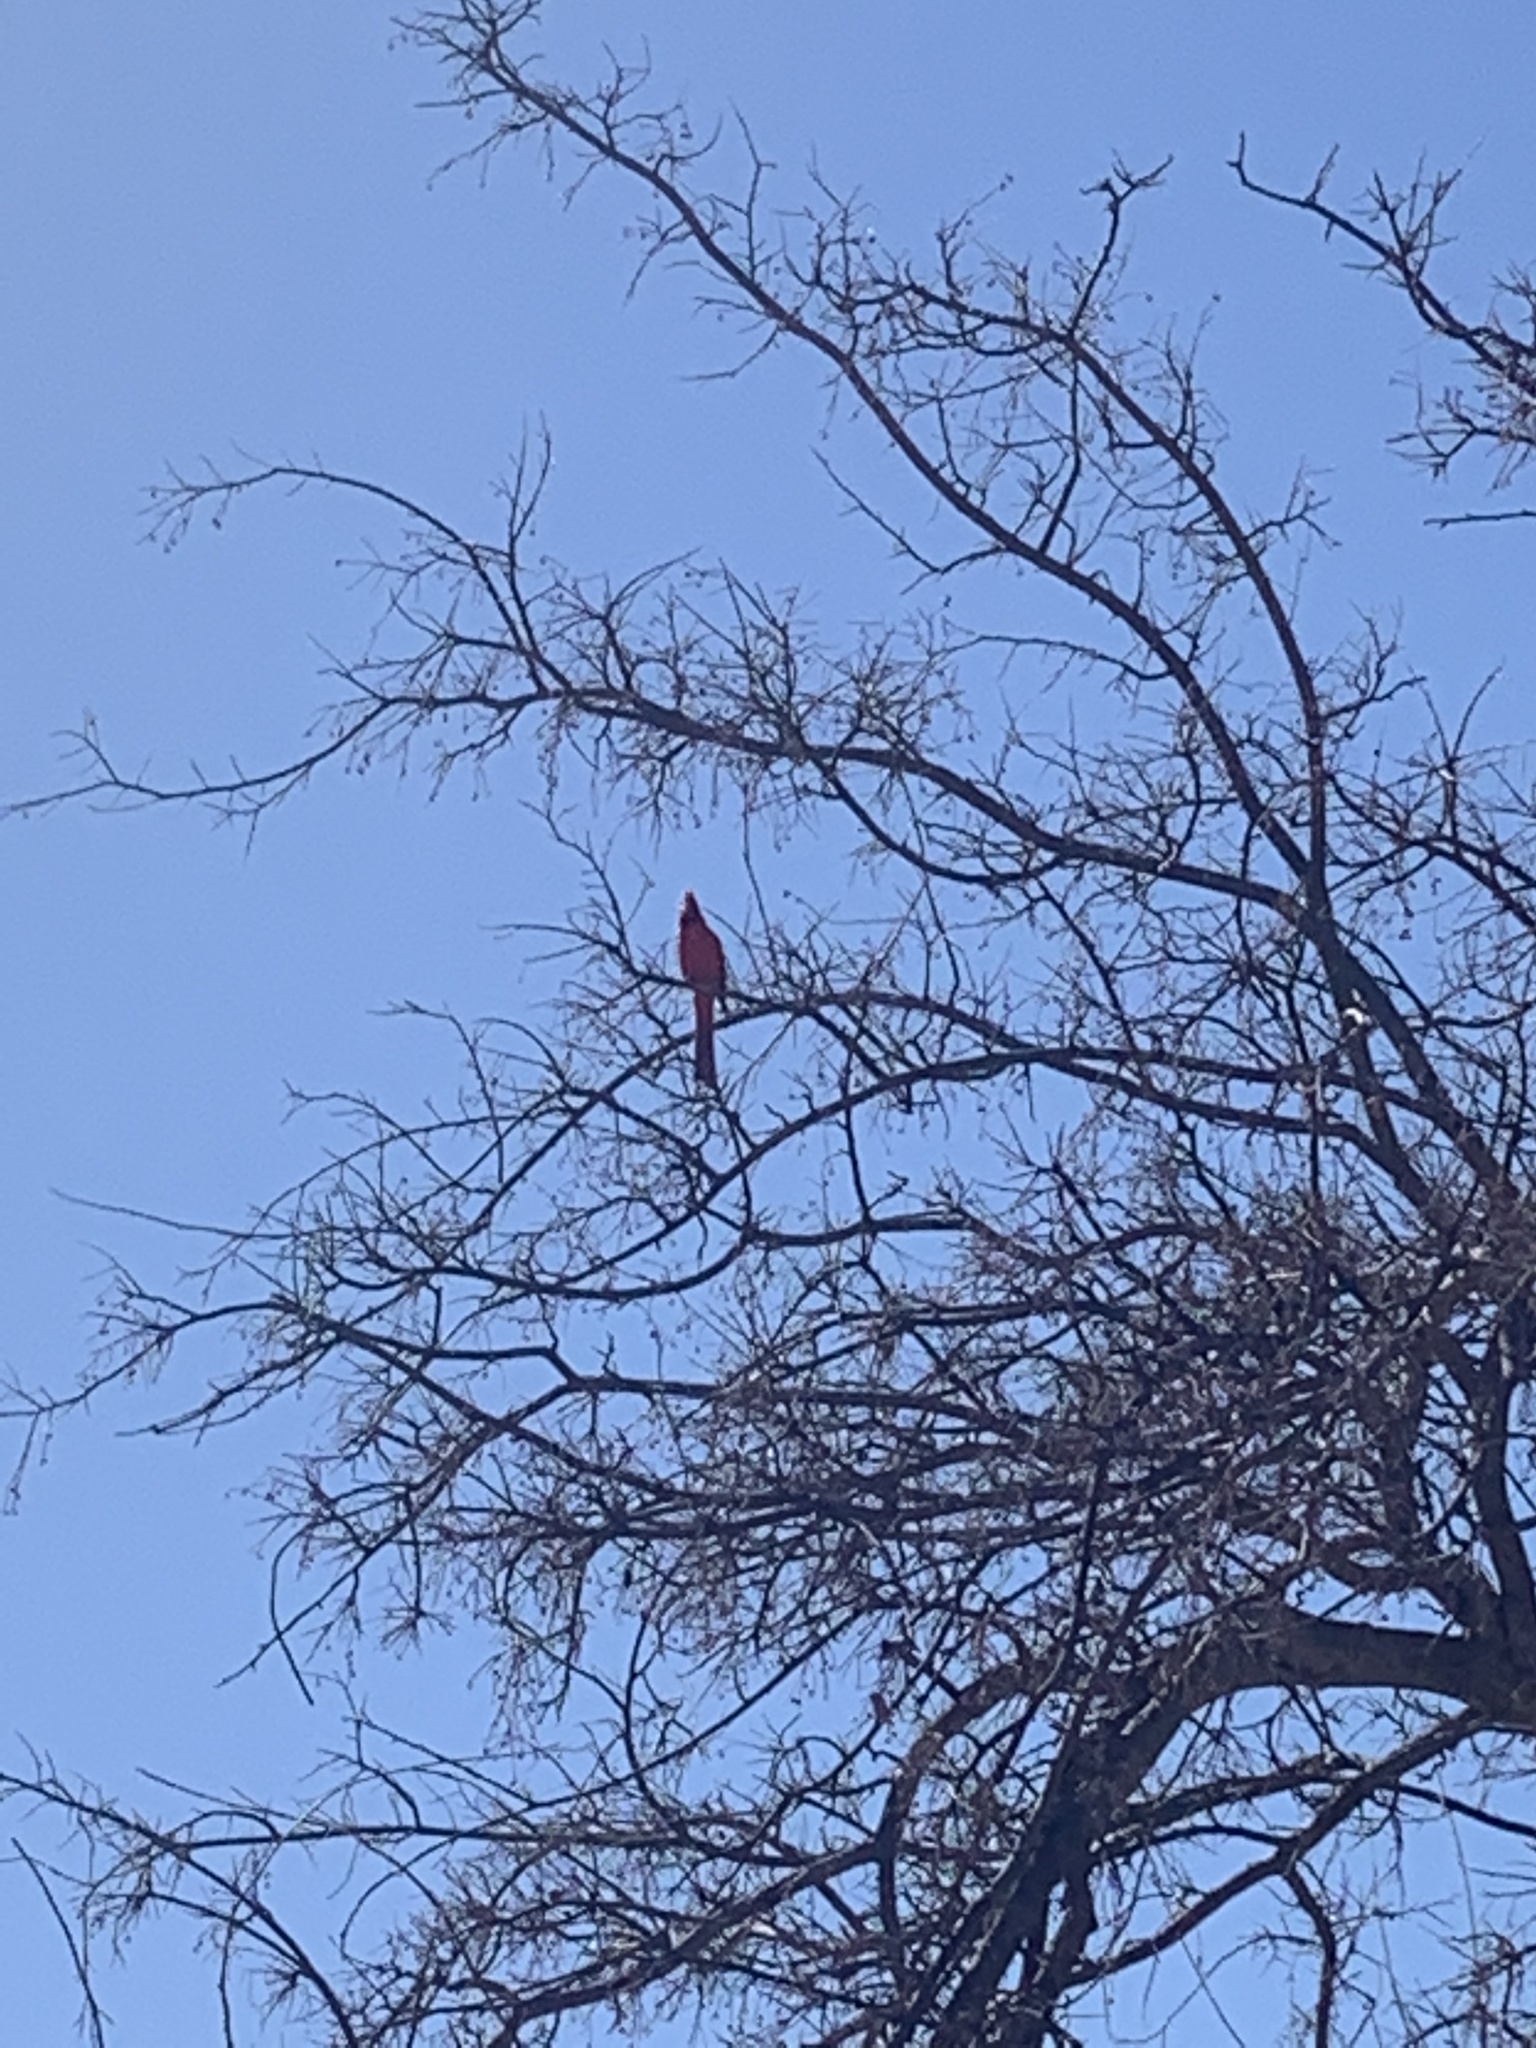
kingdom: Animalia
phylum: Chordata
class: Aves
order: Passeriformes
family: Cardinalidae
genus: Cardinalis
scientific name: Cardinalis cardinalis
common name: Northern cardinal
